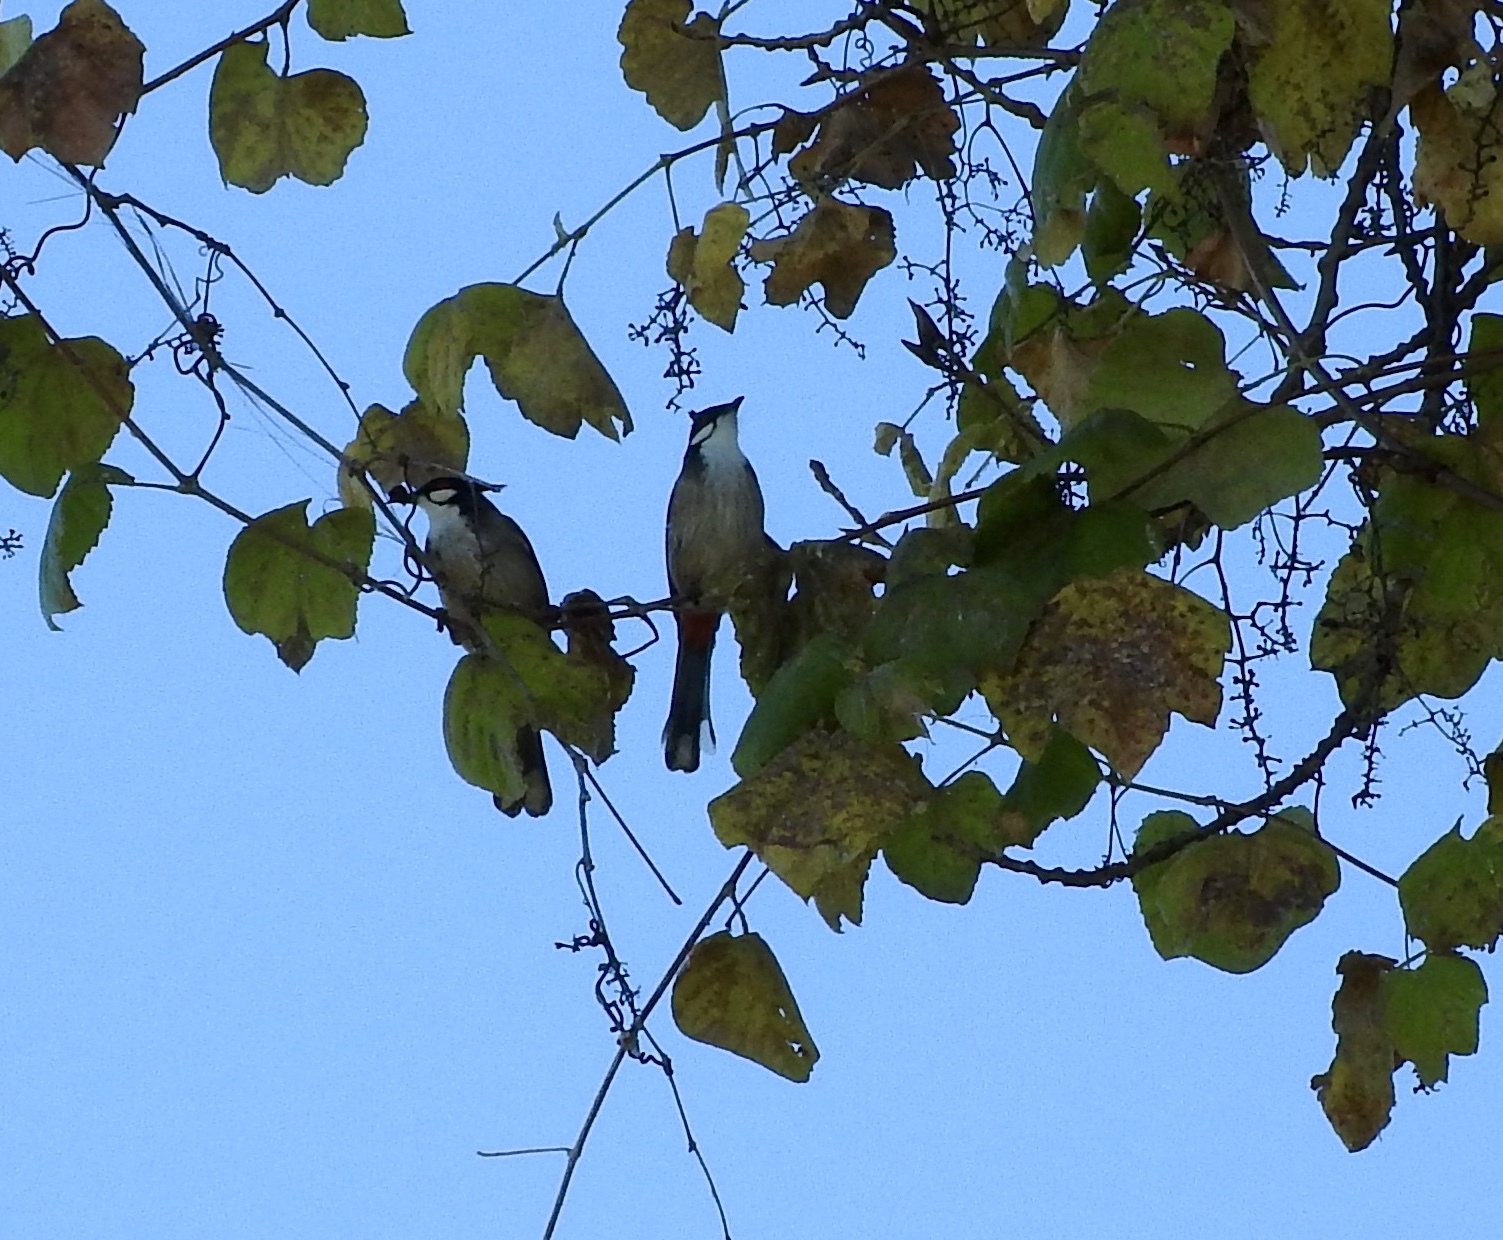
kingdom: Animalia
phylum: Chordata
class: Aves
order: Passeriformes
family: Pycnonotidae
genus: Pycnonotus
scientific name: Pycnonotus jocosus
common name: Red-whiskered bulbul
